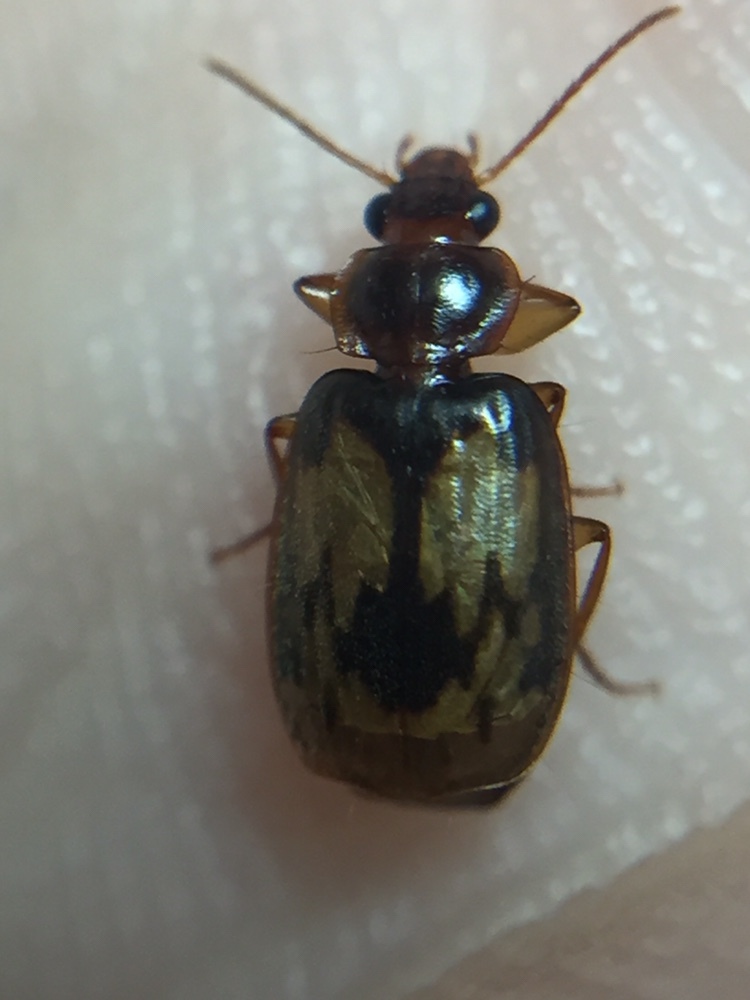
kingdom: Animalia
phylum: Arthropoda
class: Insecta
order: Coleoptera
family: Carabidae
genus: Philophlaeus
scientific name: Philophlaeus luculentus
